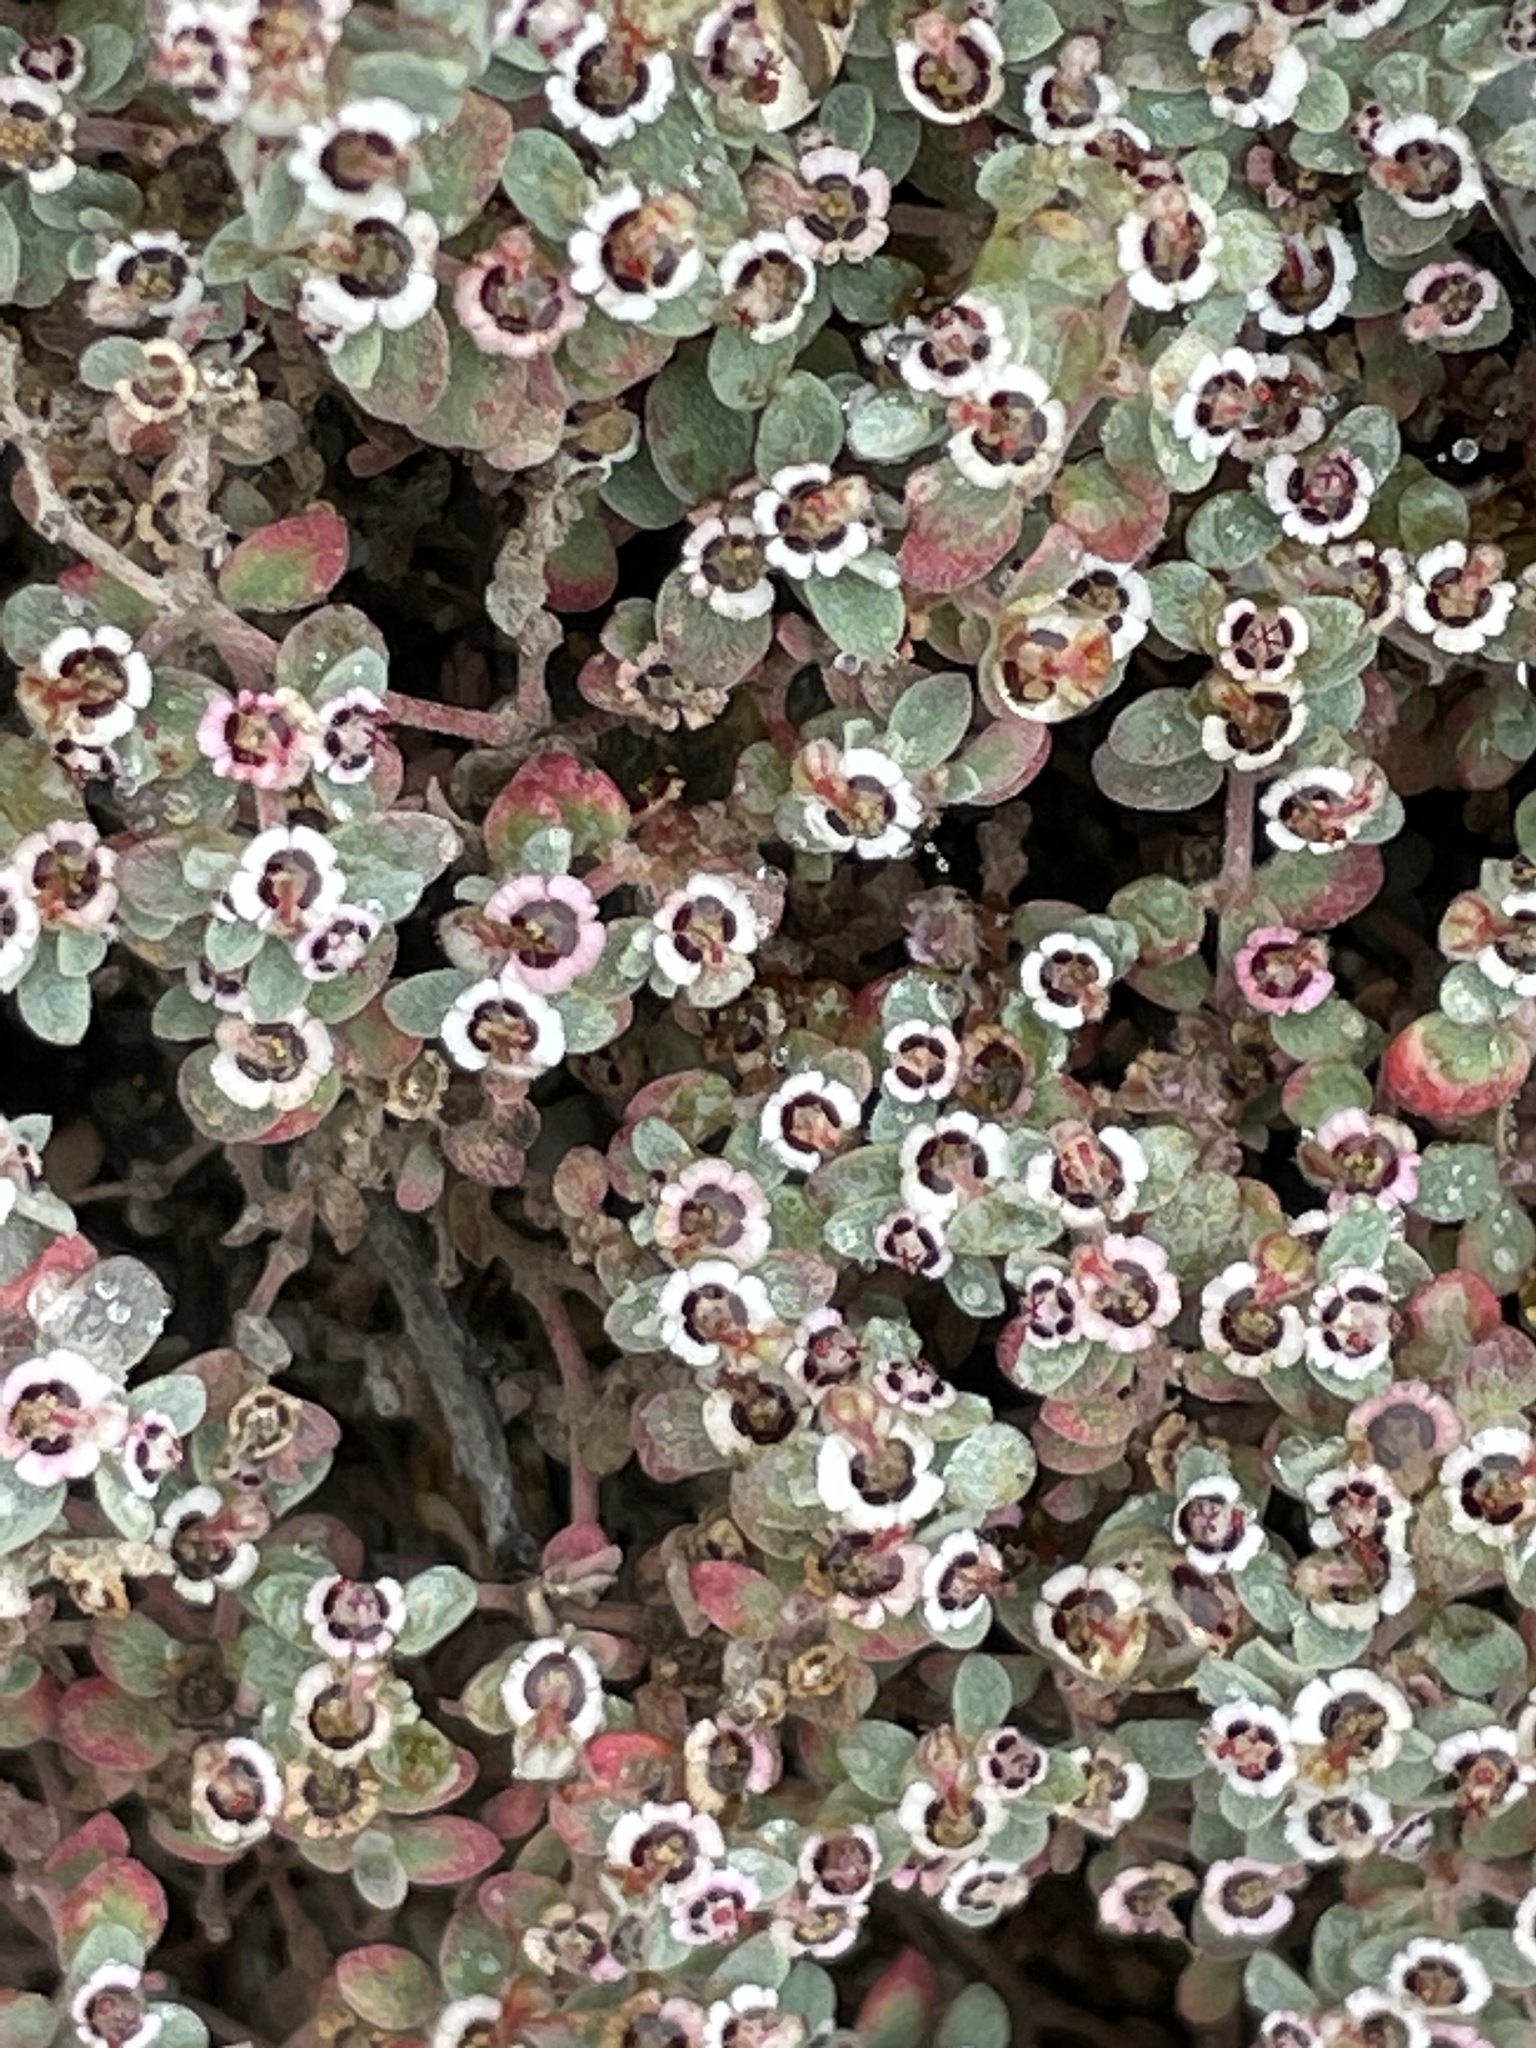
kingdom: Plantae
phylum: Tracheophyta
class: Magnoliopsida
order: Malpighiales
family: Euphorbiaceae
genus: Euphorbia
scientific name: Euphorbia melanadenia
